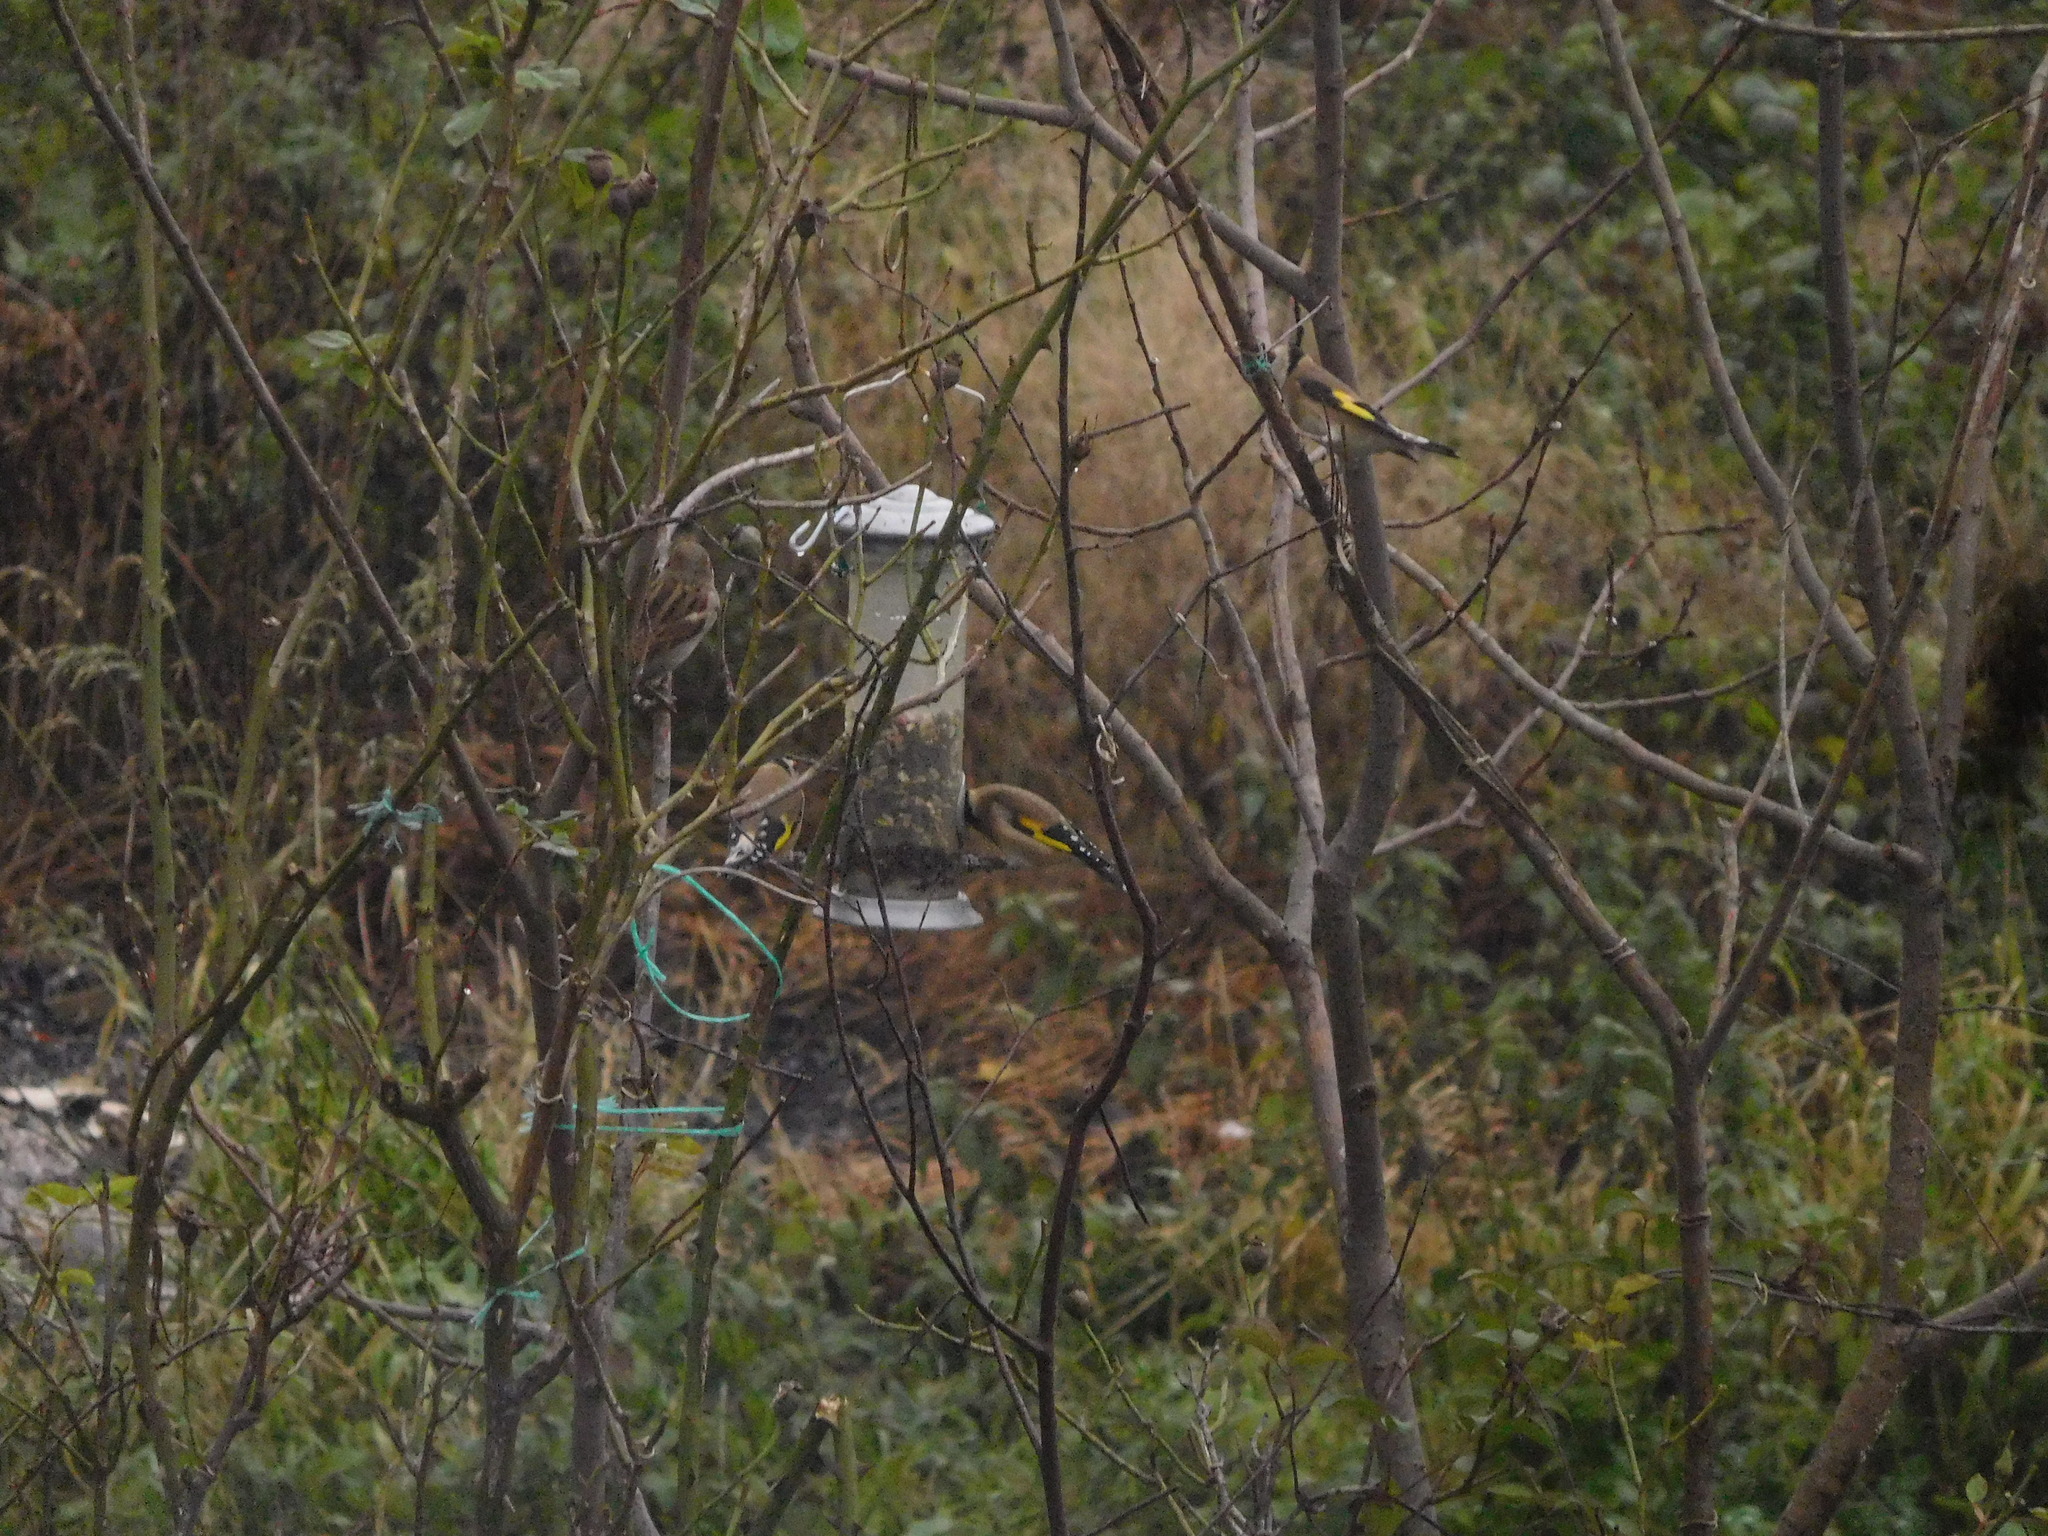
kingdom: Animalia
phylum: Chordata
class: Aves
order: Passeriformes
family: Fringillidae
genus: Carduelis
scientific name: Carduelis carduelis
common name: European goldfinch
